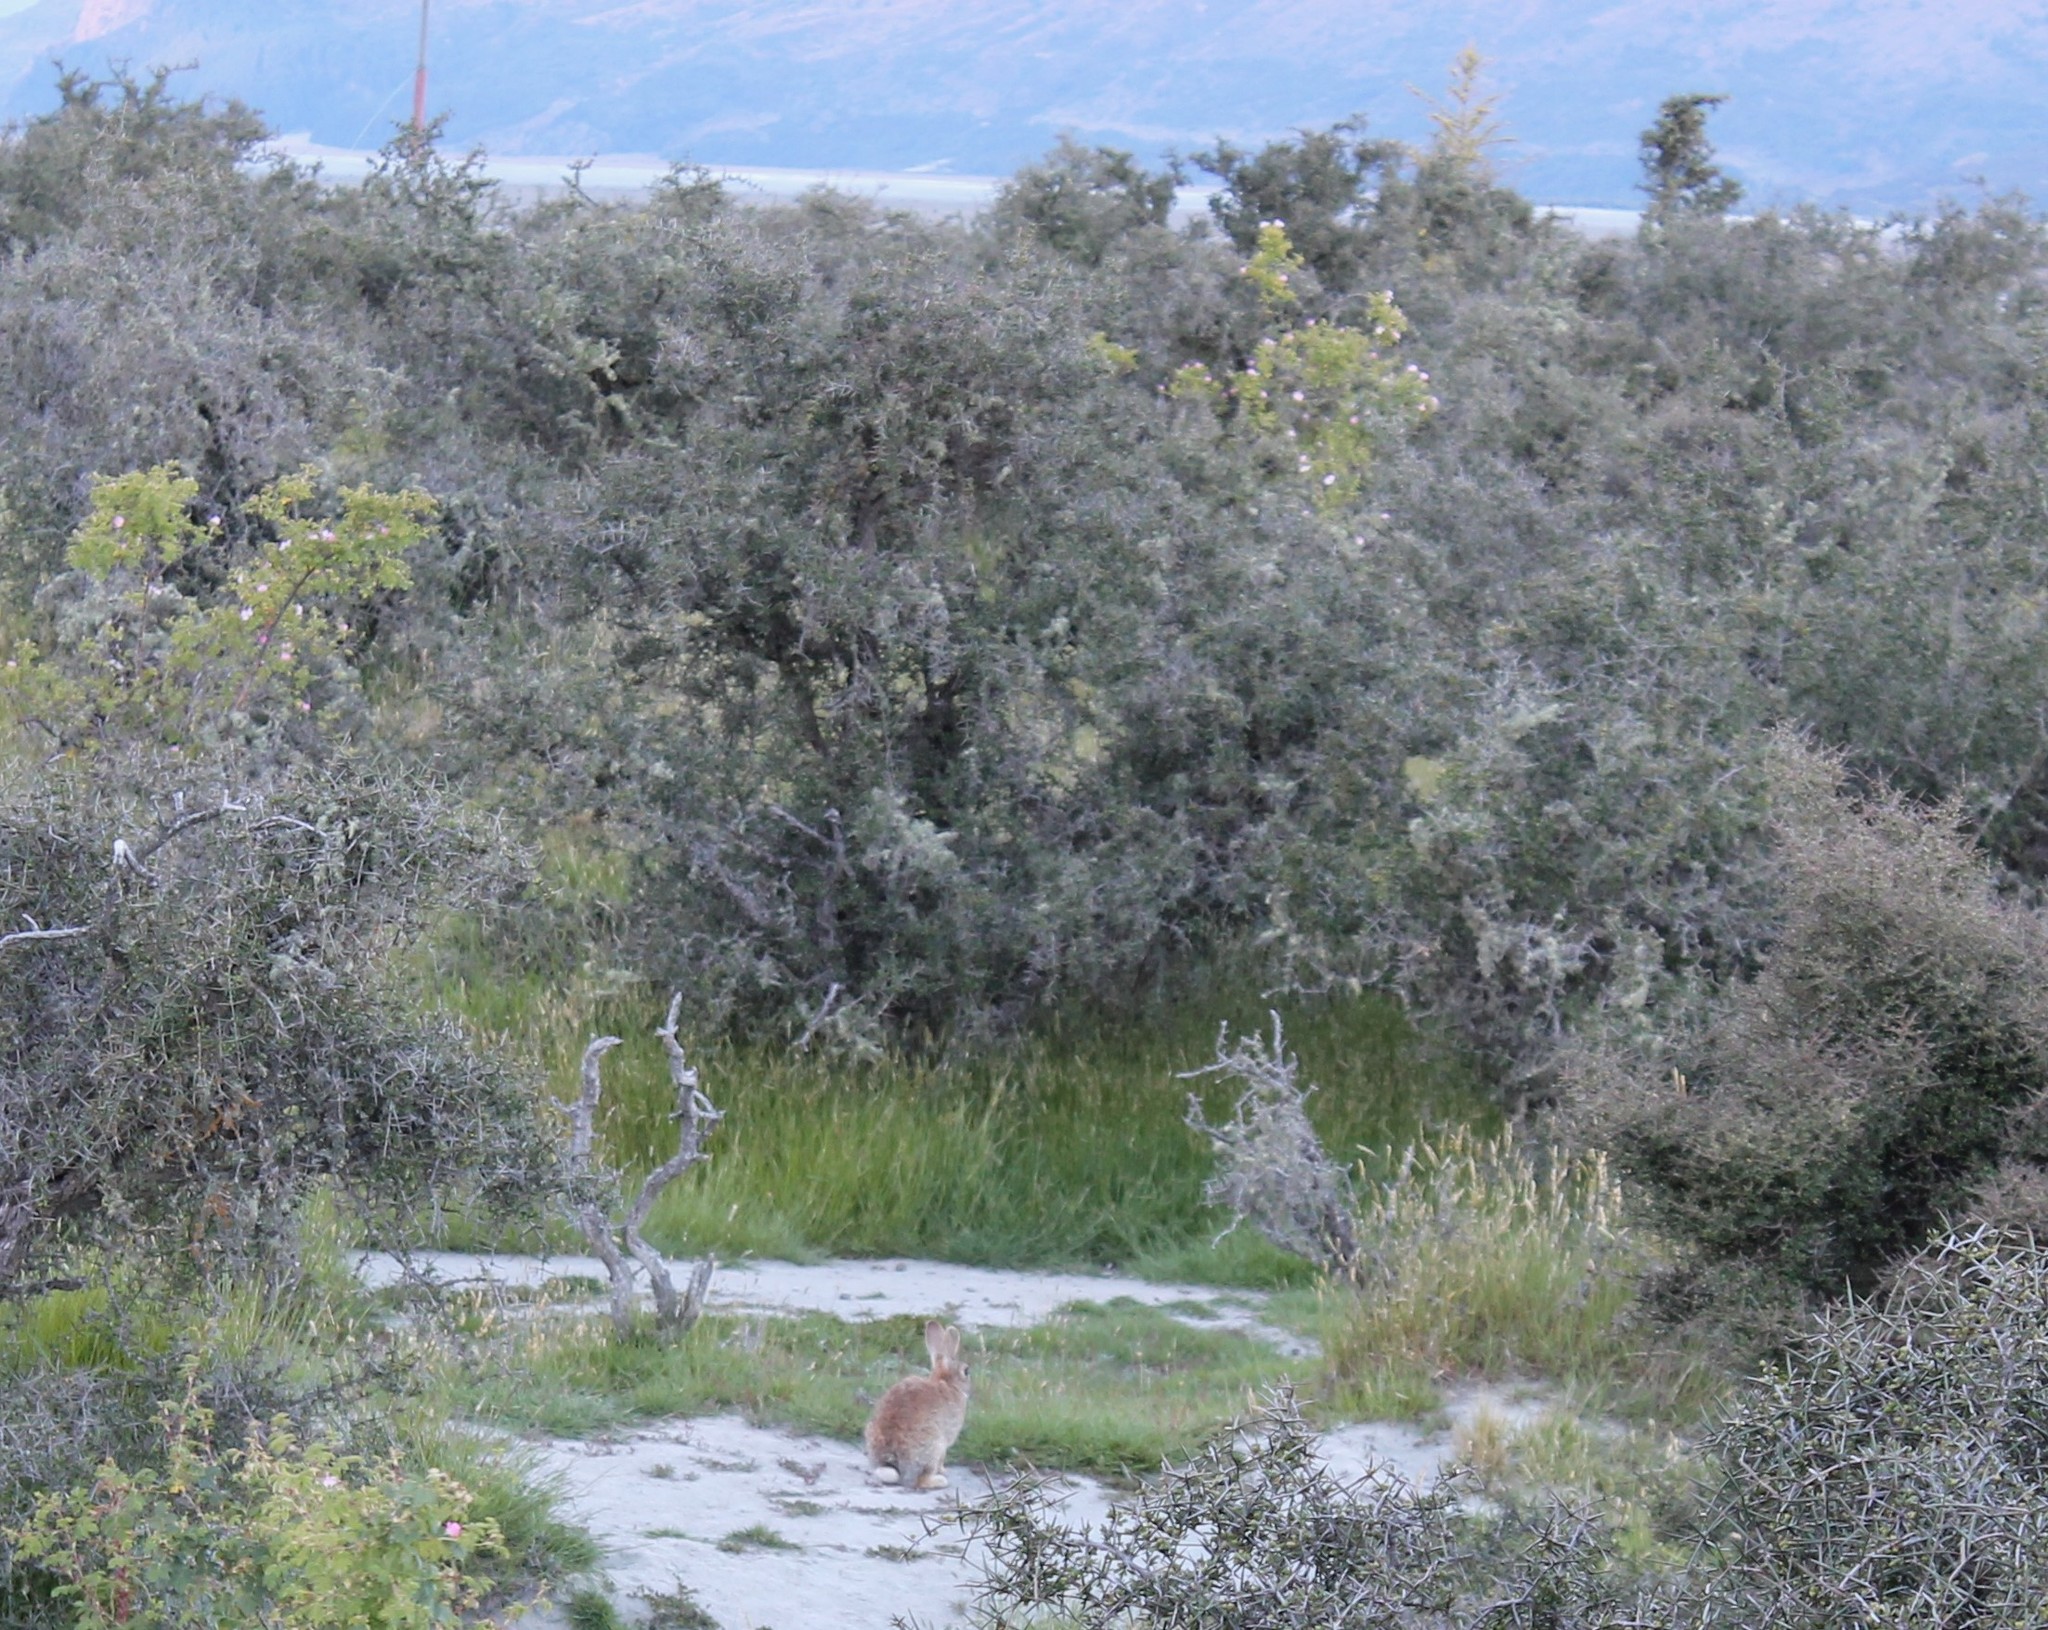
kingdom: Animalia
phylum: Chordata
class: Mammalia
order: Lagomorpha
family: Leporidae
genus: Oryctolagus
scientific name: Oryctolagus cuniculus
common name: European rabbit
